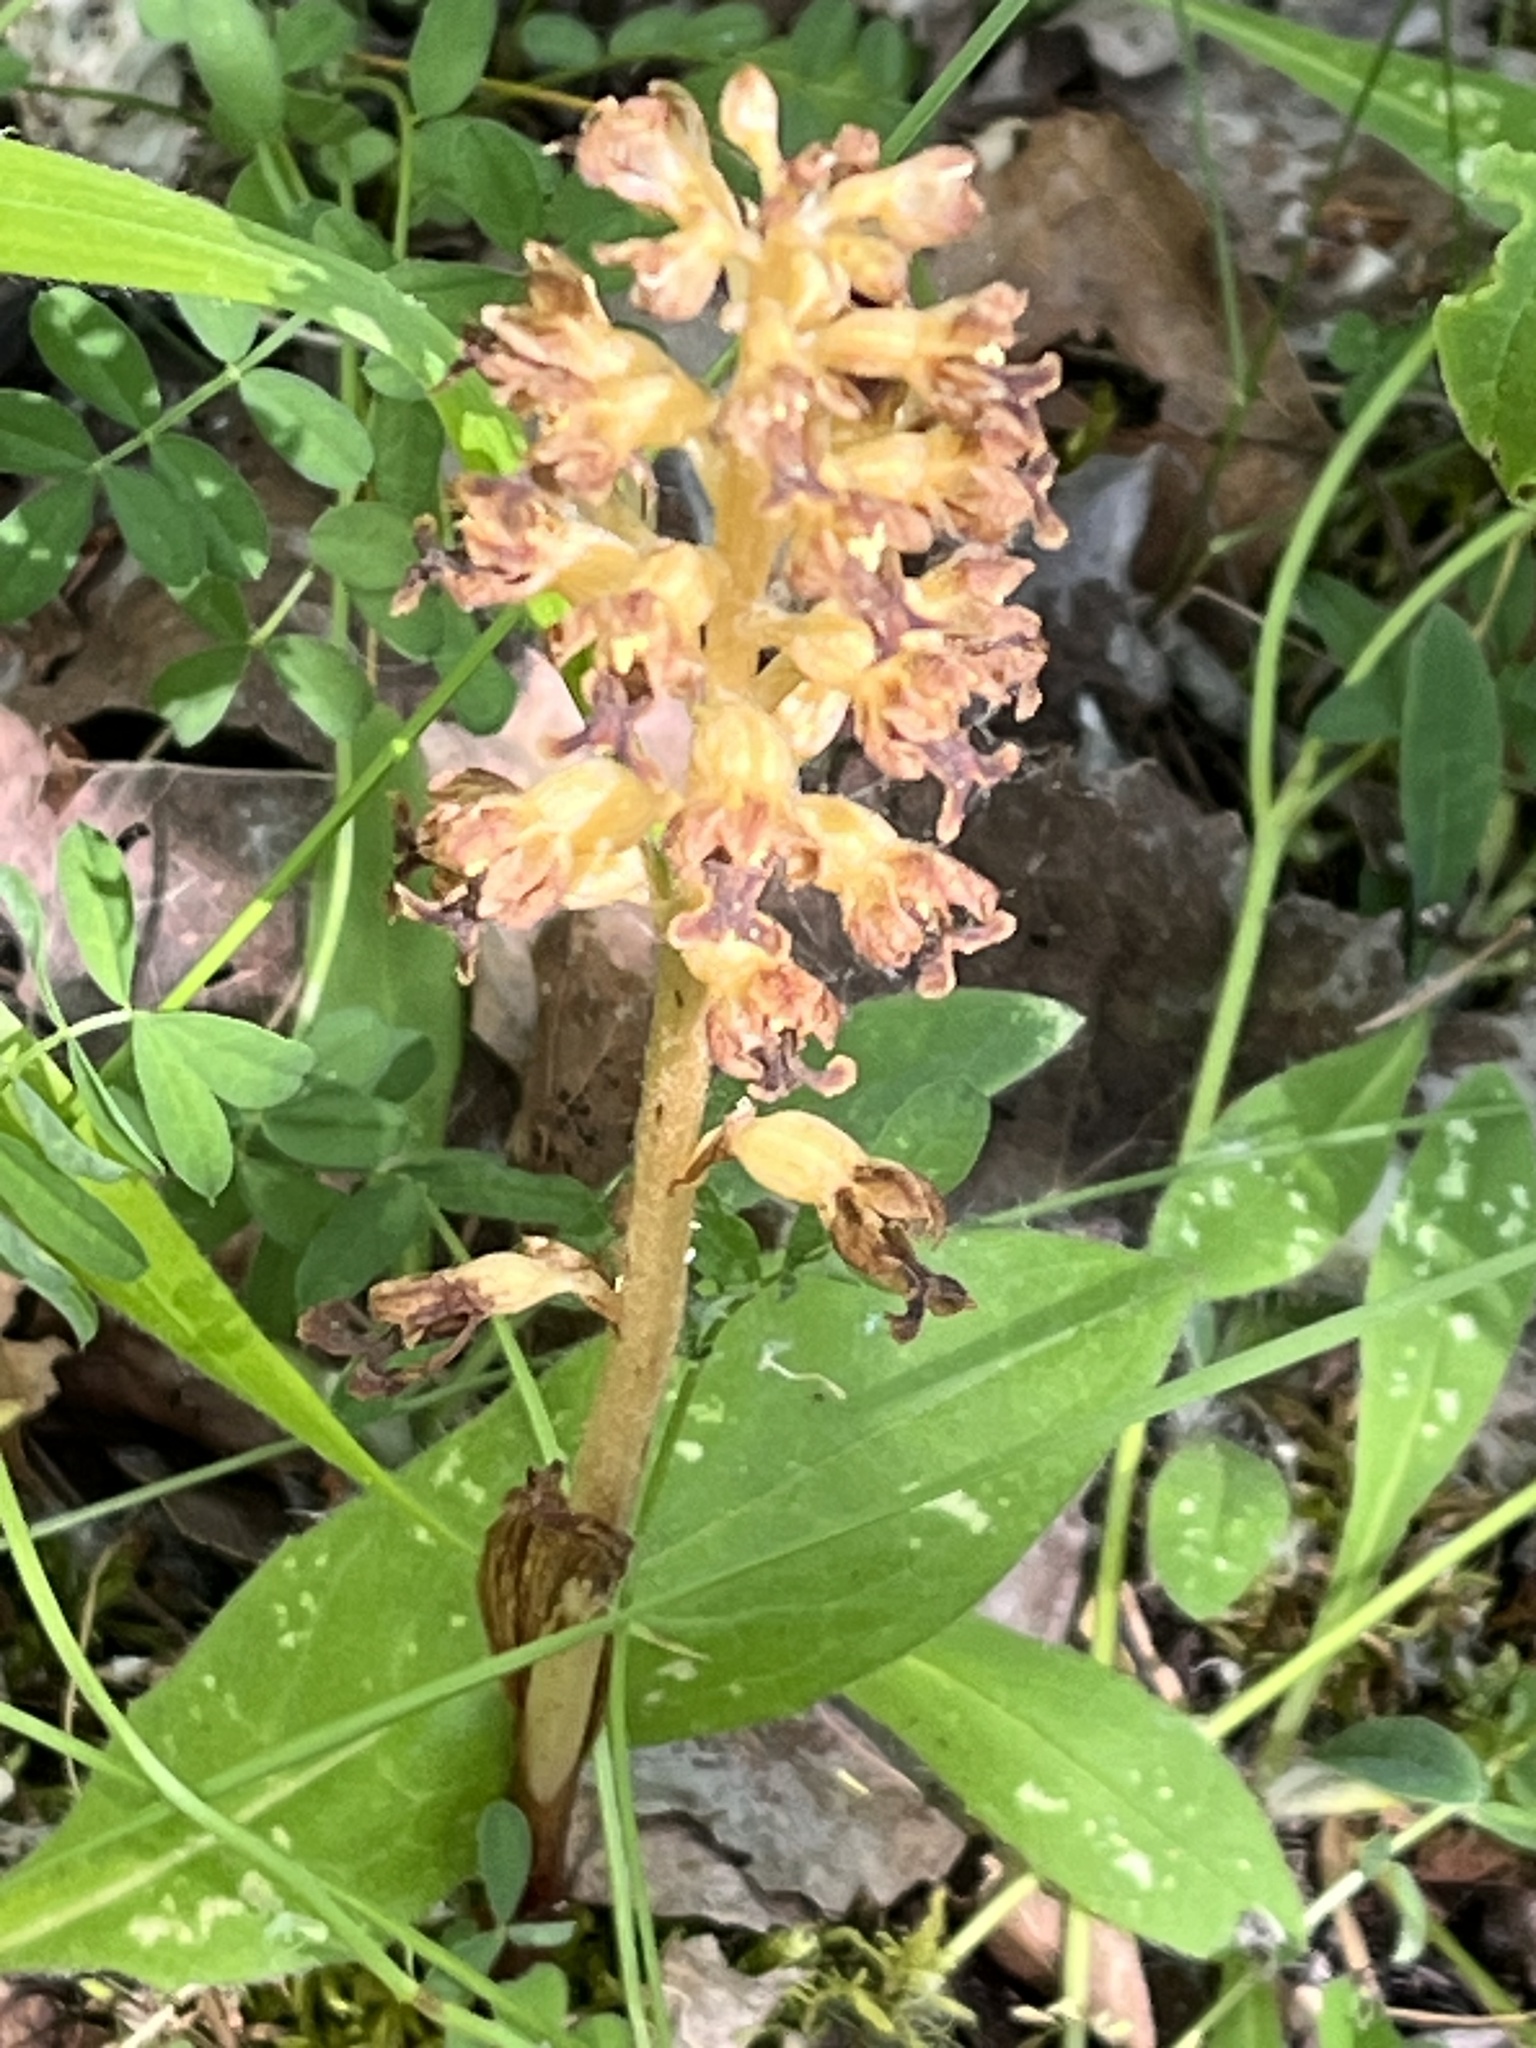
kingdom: Plantae
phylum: Tracheophyta
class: Liliopsida
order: Asparagales
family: Orchidaceae
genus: Neottia
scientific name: Neottia nidus-avis
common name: Bird's-nest orchid
